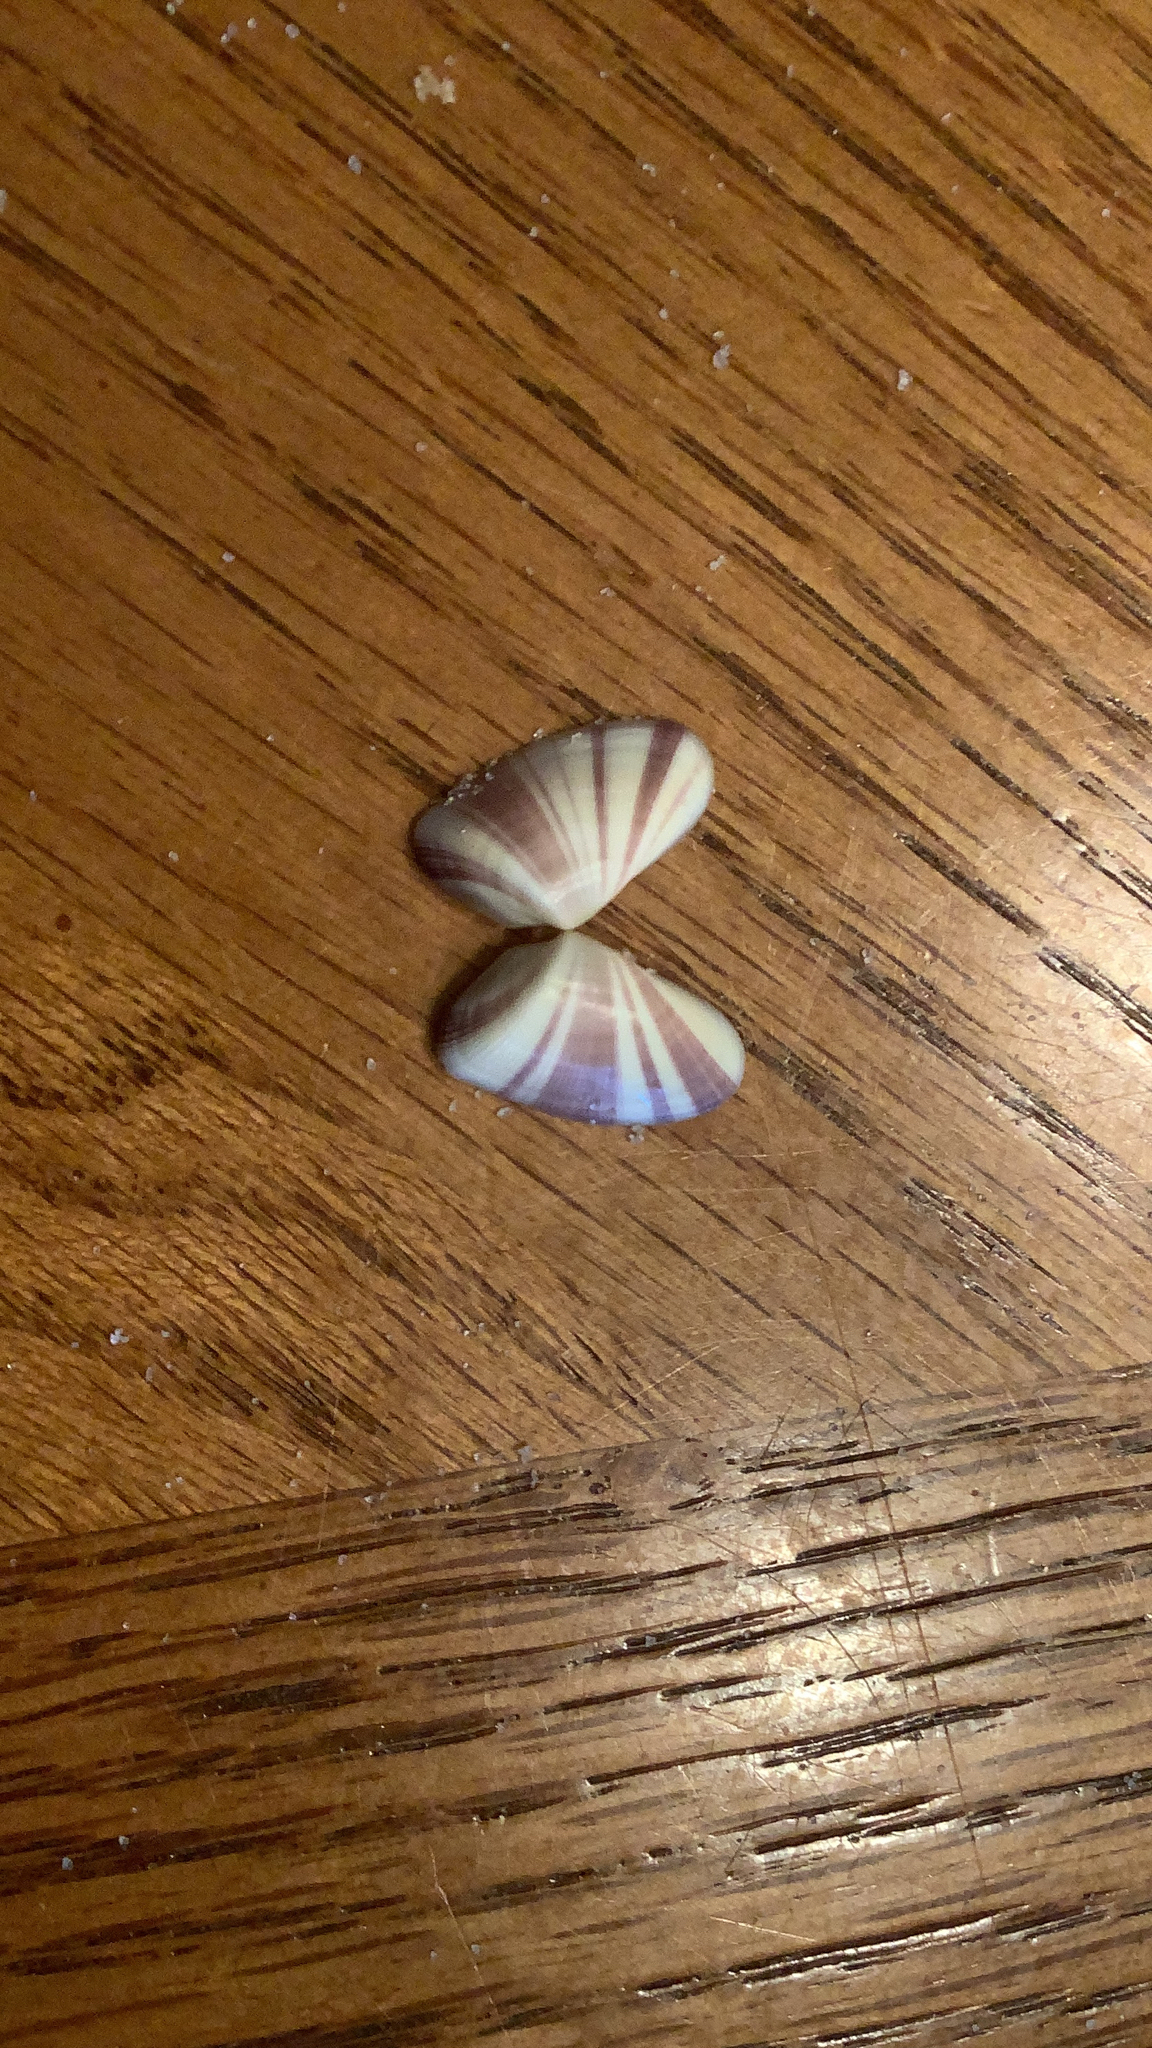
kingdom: Animalia
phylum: Mollusca
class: Bivalvia
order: Cardiida
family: Donacidae
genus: Donax
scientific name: Donax variabilis
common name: Butterfly shell
